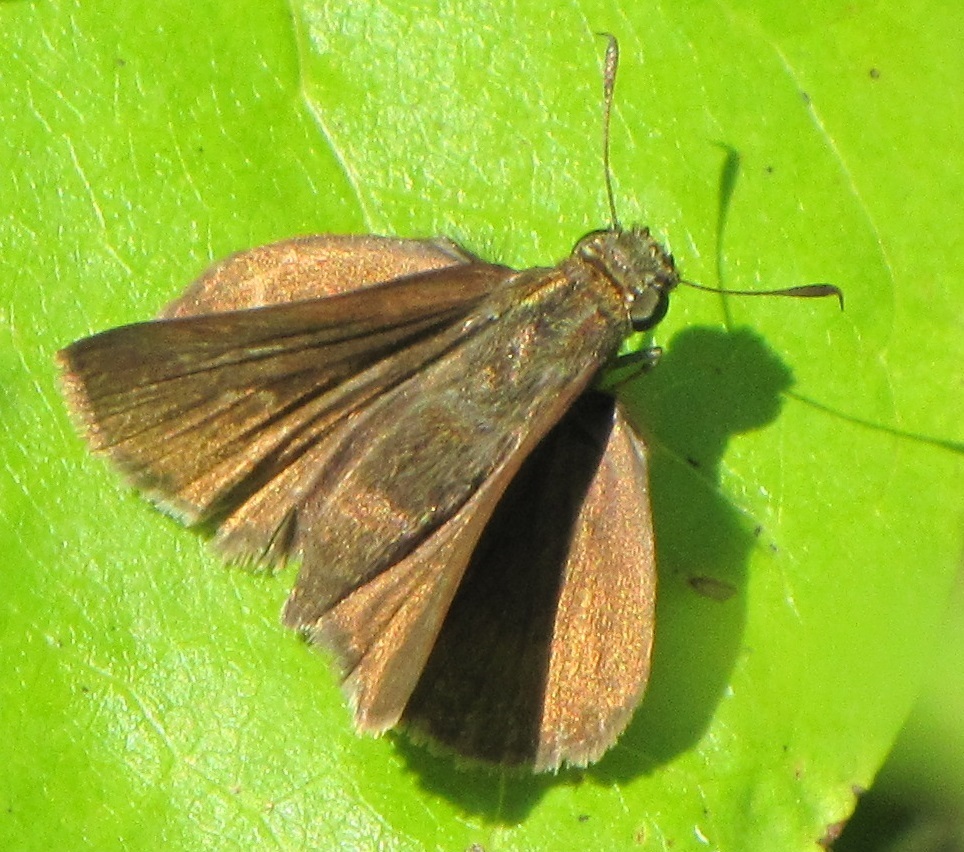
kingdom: Animalia
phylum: Arthropoda
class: Insecta
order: Lepidoptera
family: Hesperiidae
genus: Euphyes
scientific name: Euphyes vestris
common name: Dun skipper
